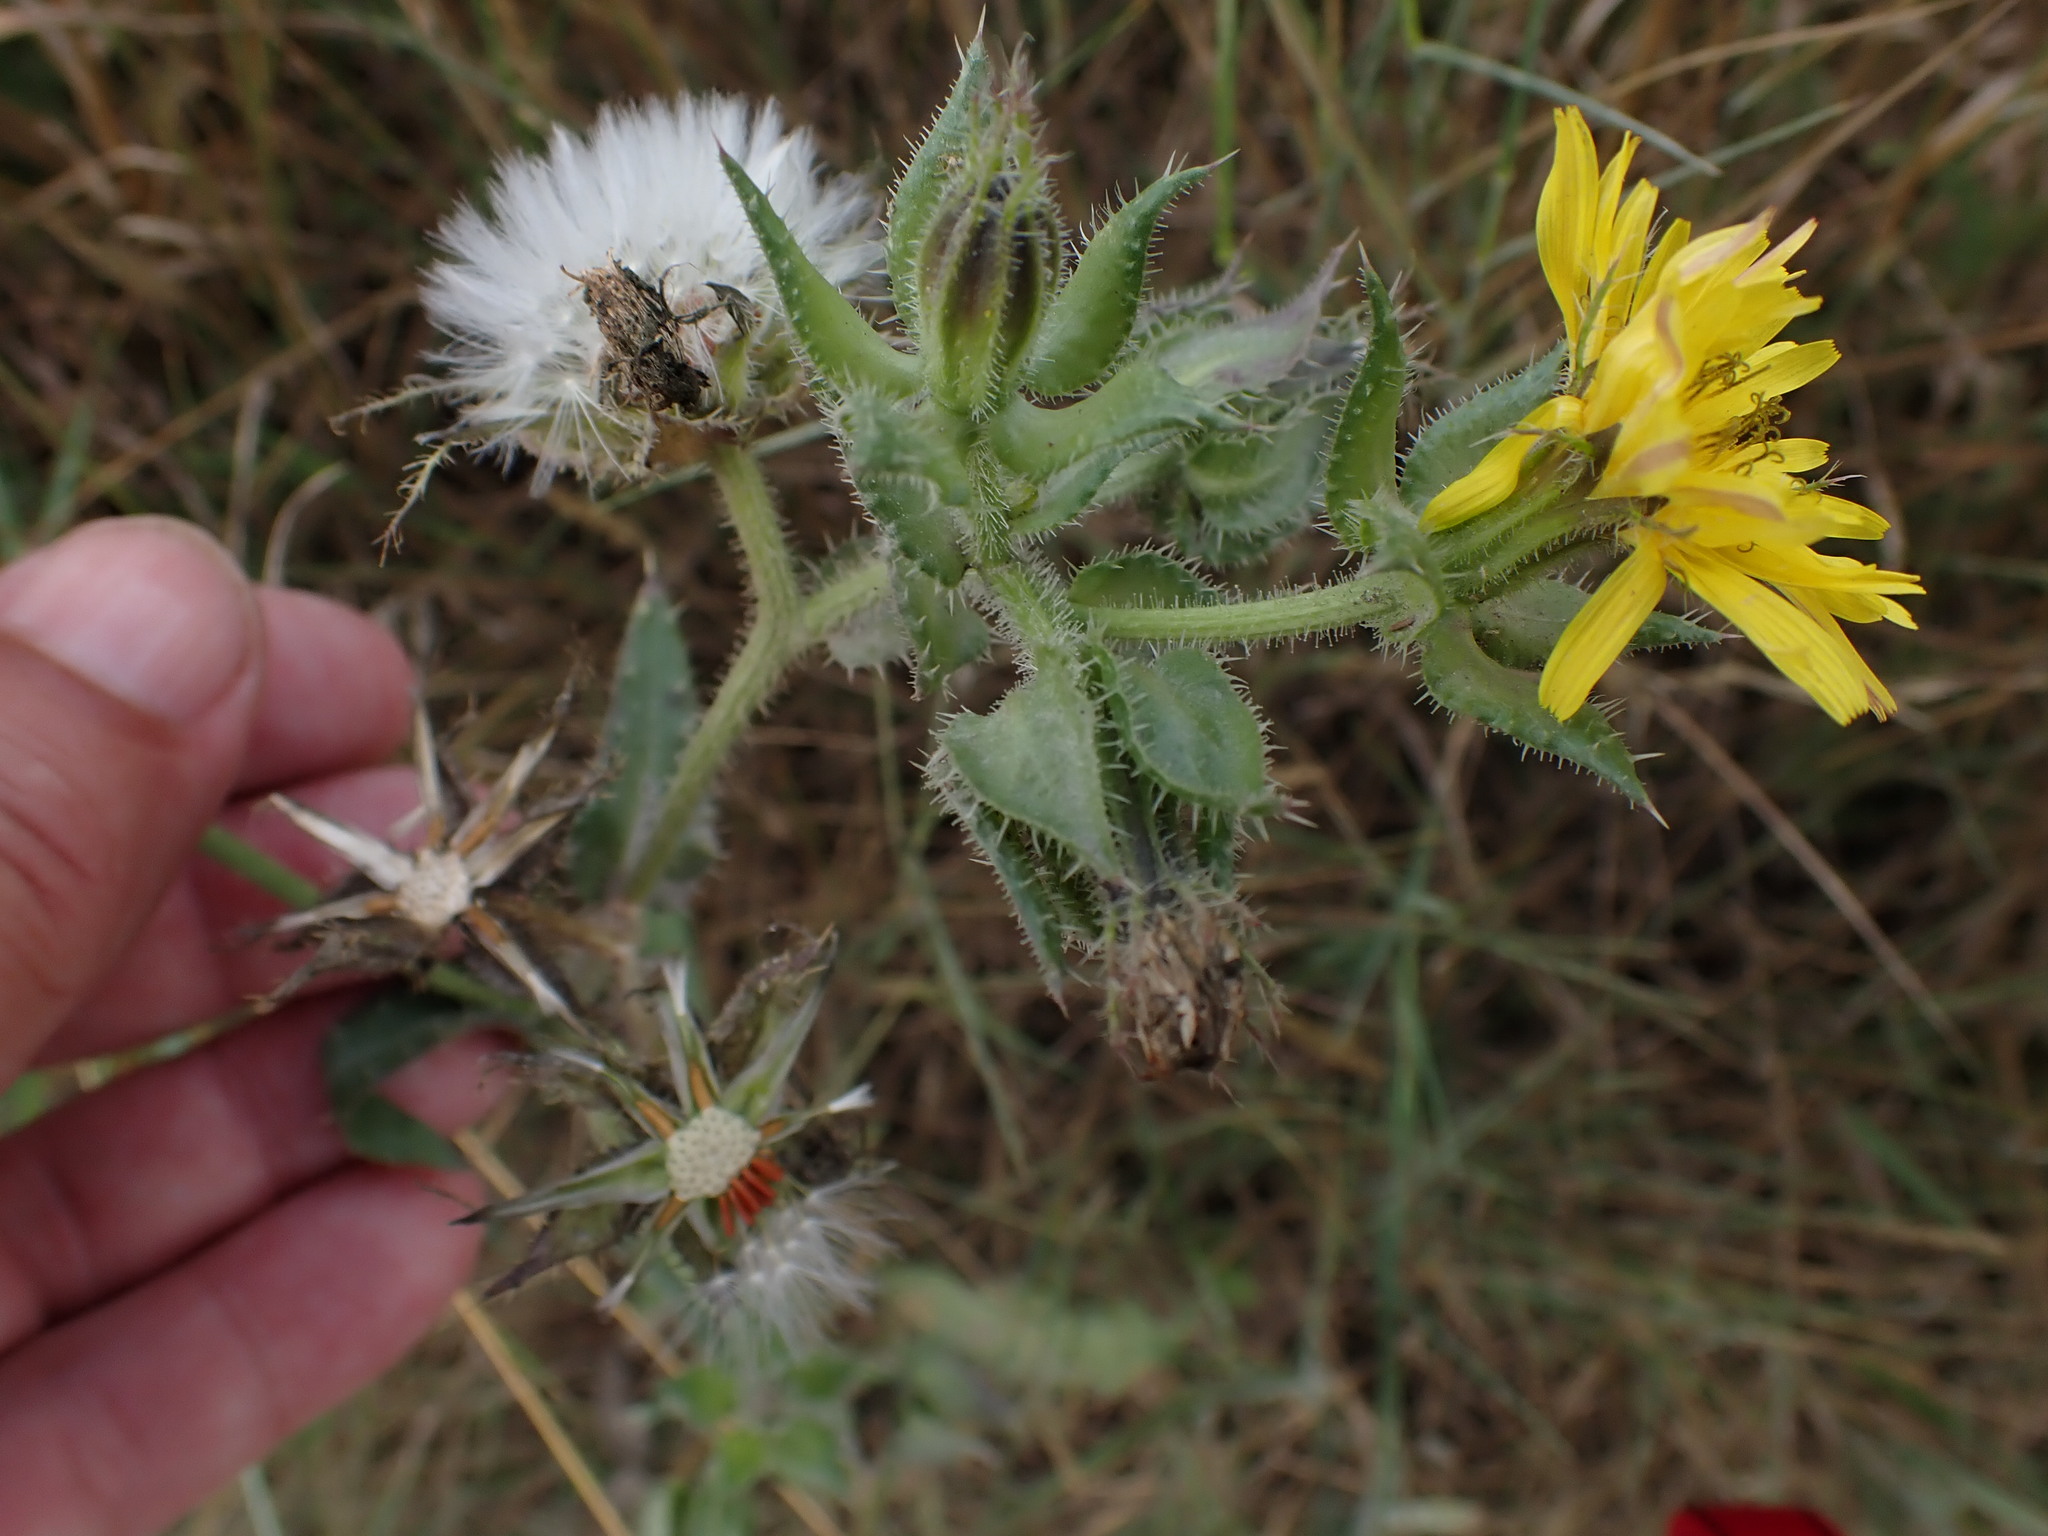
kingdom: Plantae
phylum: Tracheophyta
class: Magnoliopsida
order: Asterales
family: Asteraceae
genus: Helminthotheca
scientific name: Helminthotheca echioides
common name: Ox-tongue
